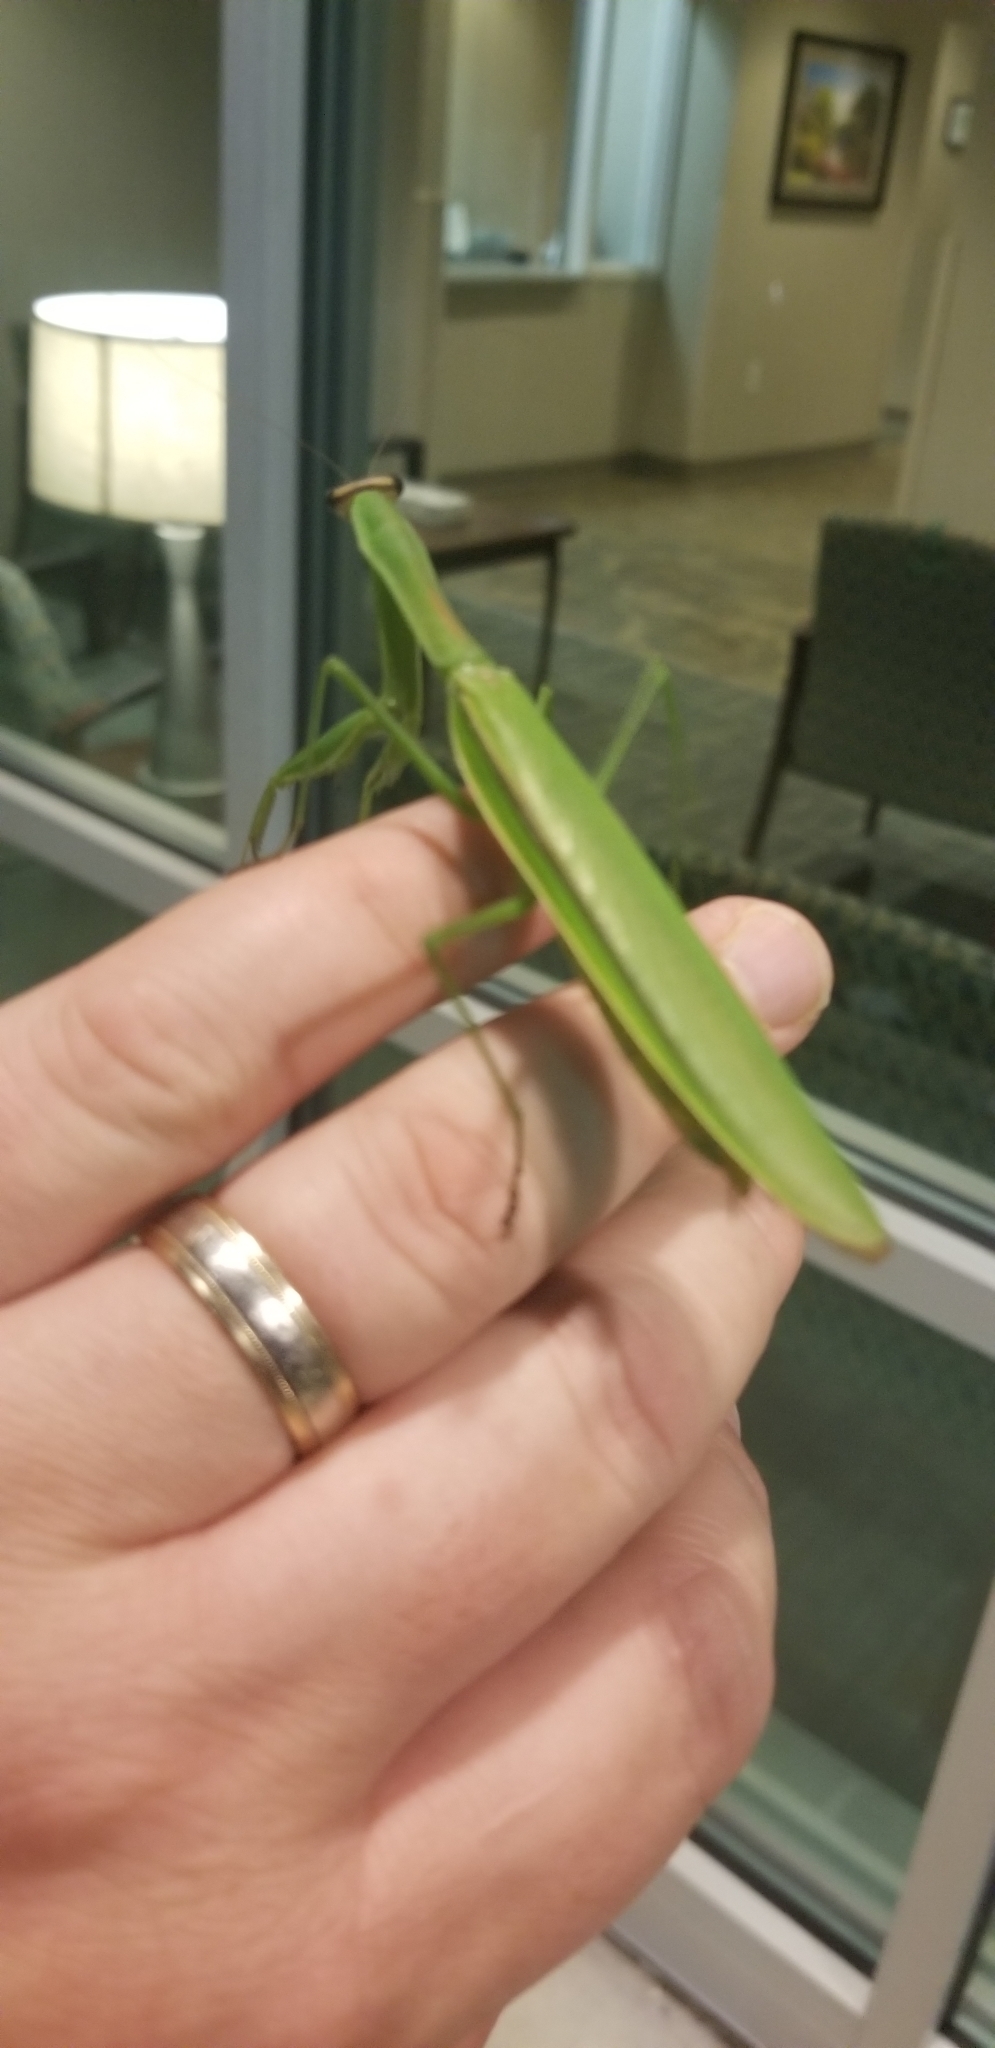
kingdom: Animalia
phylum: Arthropoda
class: Insecta
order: Mantodea
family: Mantidae
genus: Tenodera
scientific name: Tenodera sinensis
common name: Chinese mantis
